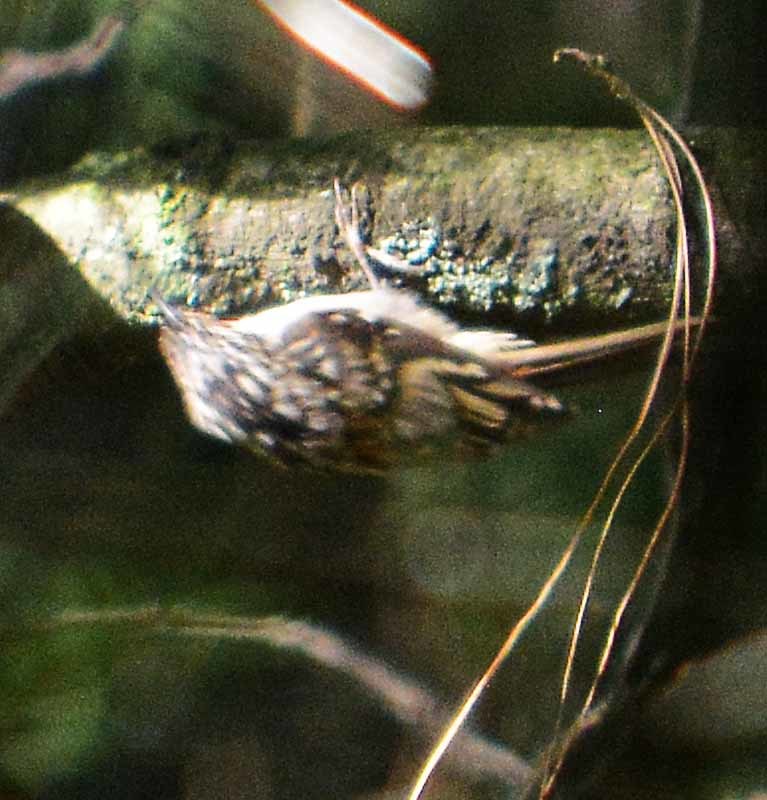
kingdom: Animalia
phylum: Chordata
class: Aves
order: Passeriformes
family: Certhiidae
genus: Certhia
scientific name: Certhia americana
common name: Brown creeper
